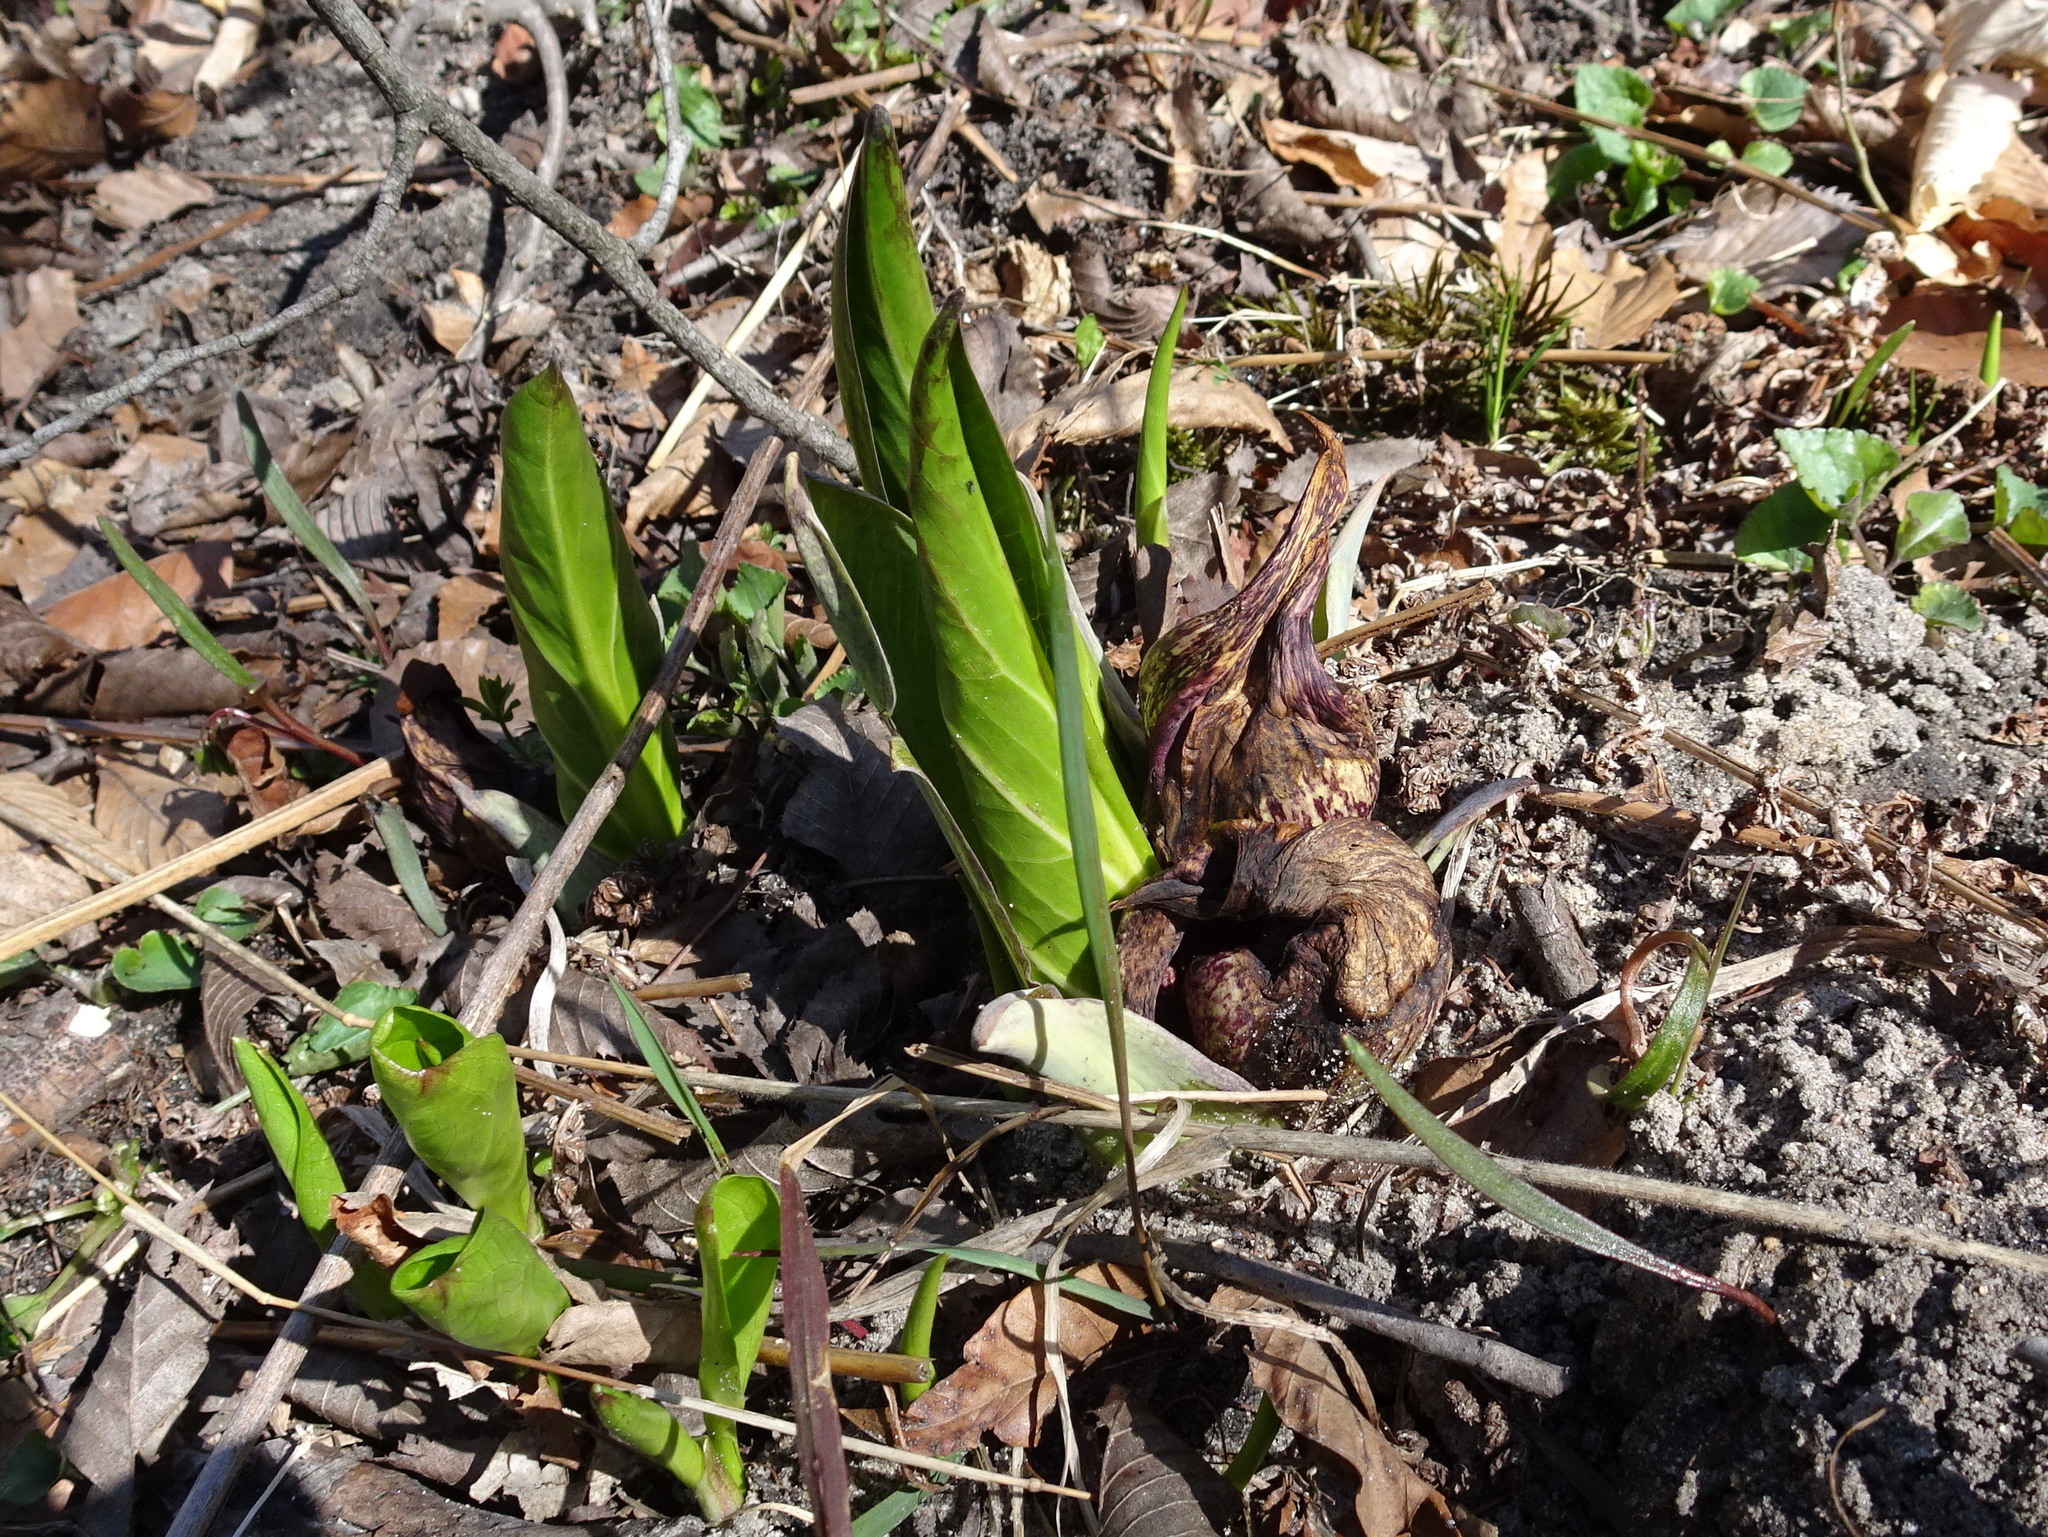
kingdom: Plantae
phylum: Tracheophyta
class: Liliopsida
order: Alismatales
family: Araceae
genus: Symplocarpus
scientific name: Symplocarpus foetidus
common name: Eastern skunk cabbage
